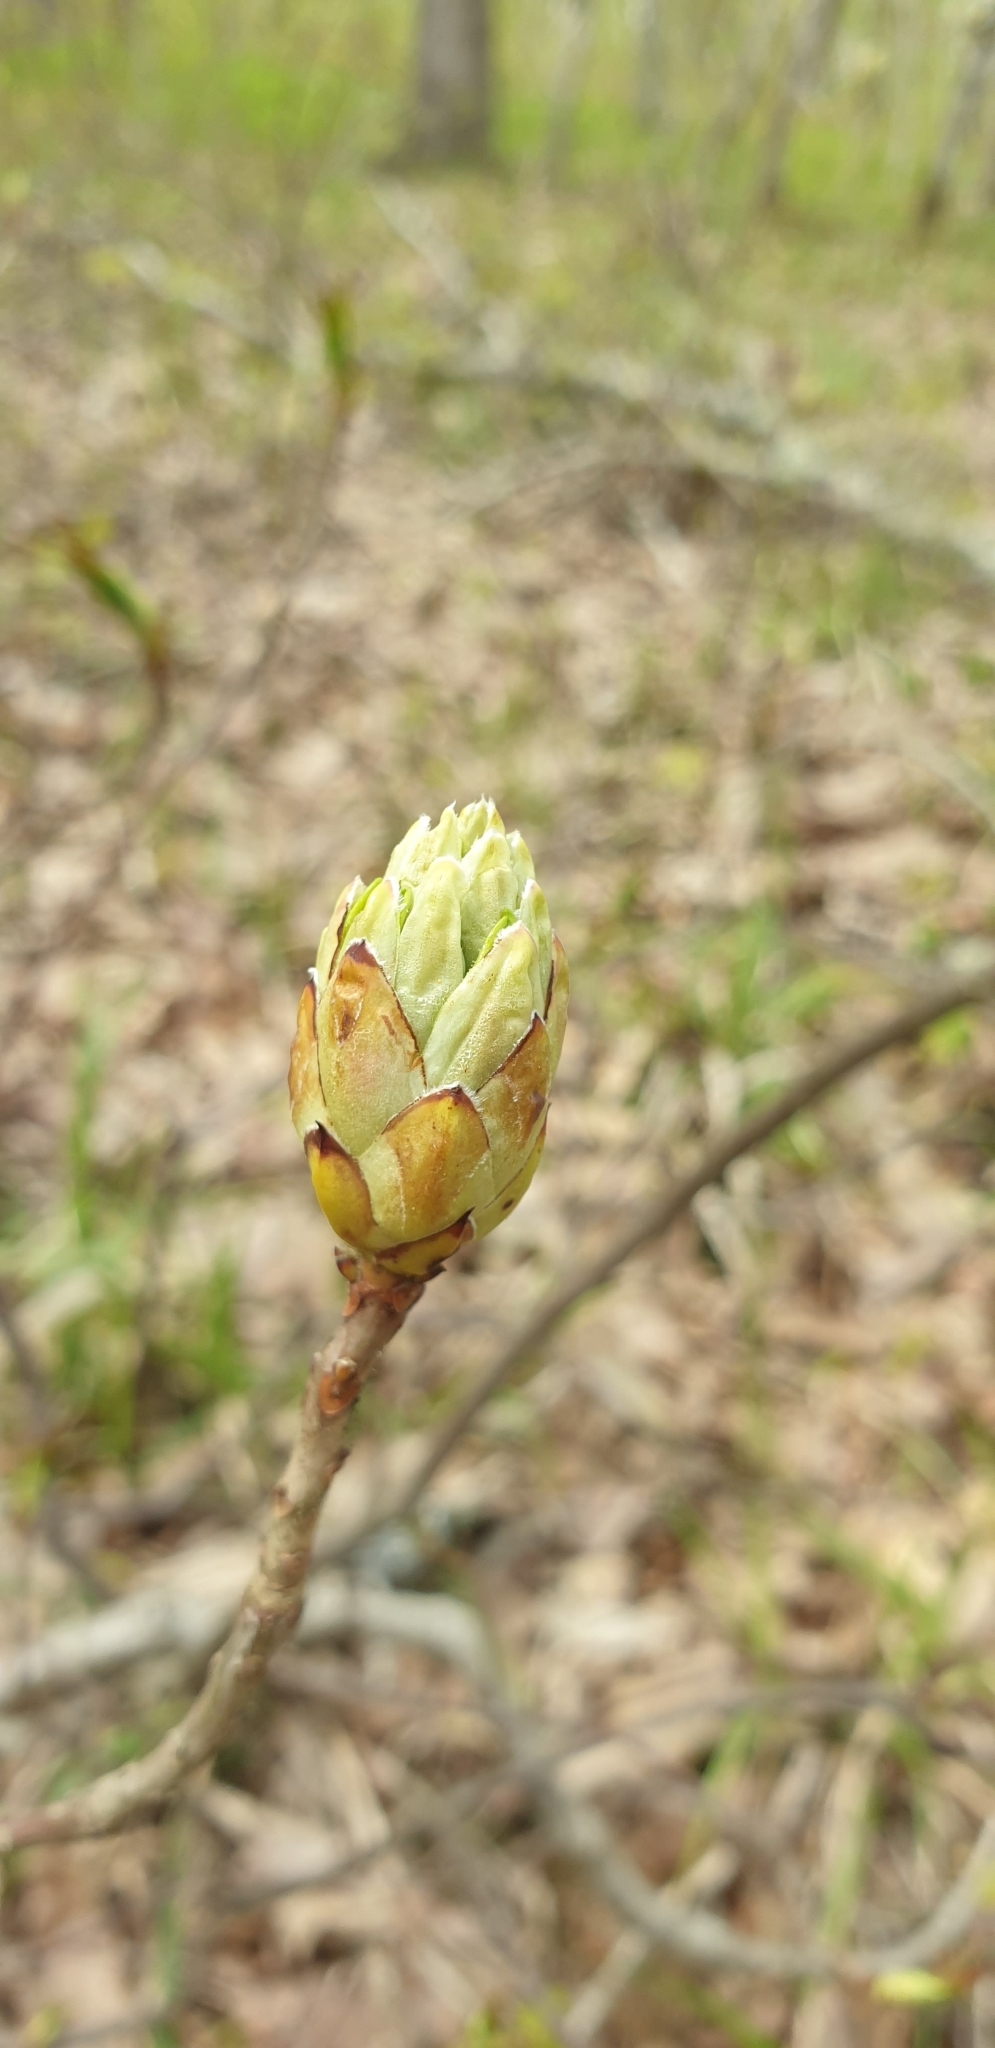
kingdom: Plantae
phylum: Tracheophyta
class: Magnoliopsida
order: Ericales
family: Ericaceae
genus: Rhododendron
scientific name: Rhododendron luteum
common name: Yellow azalea
